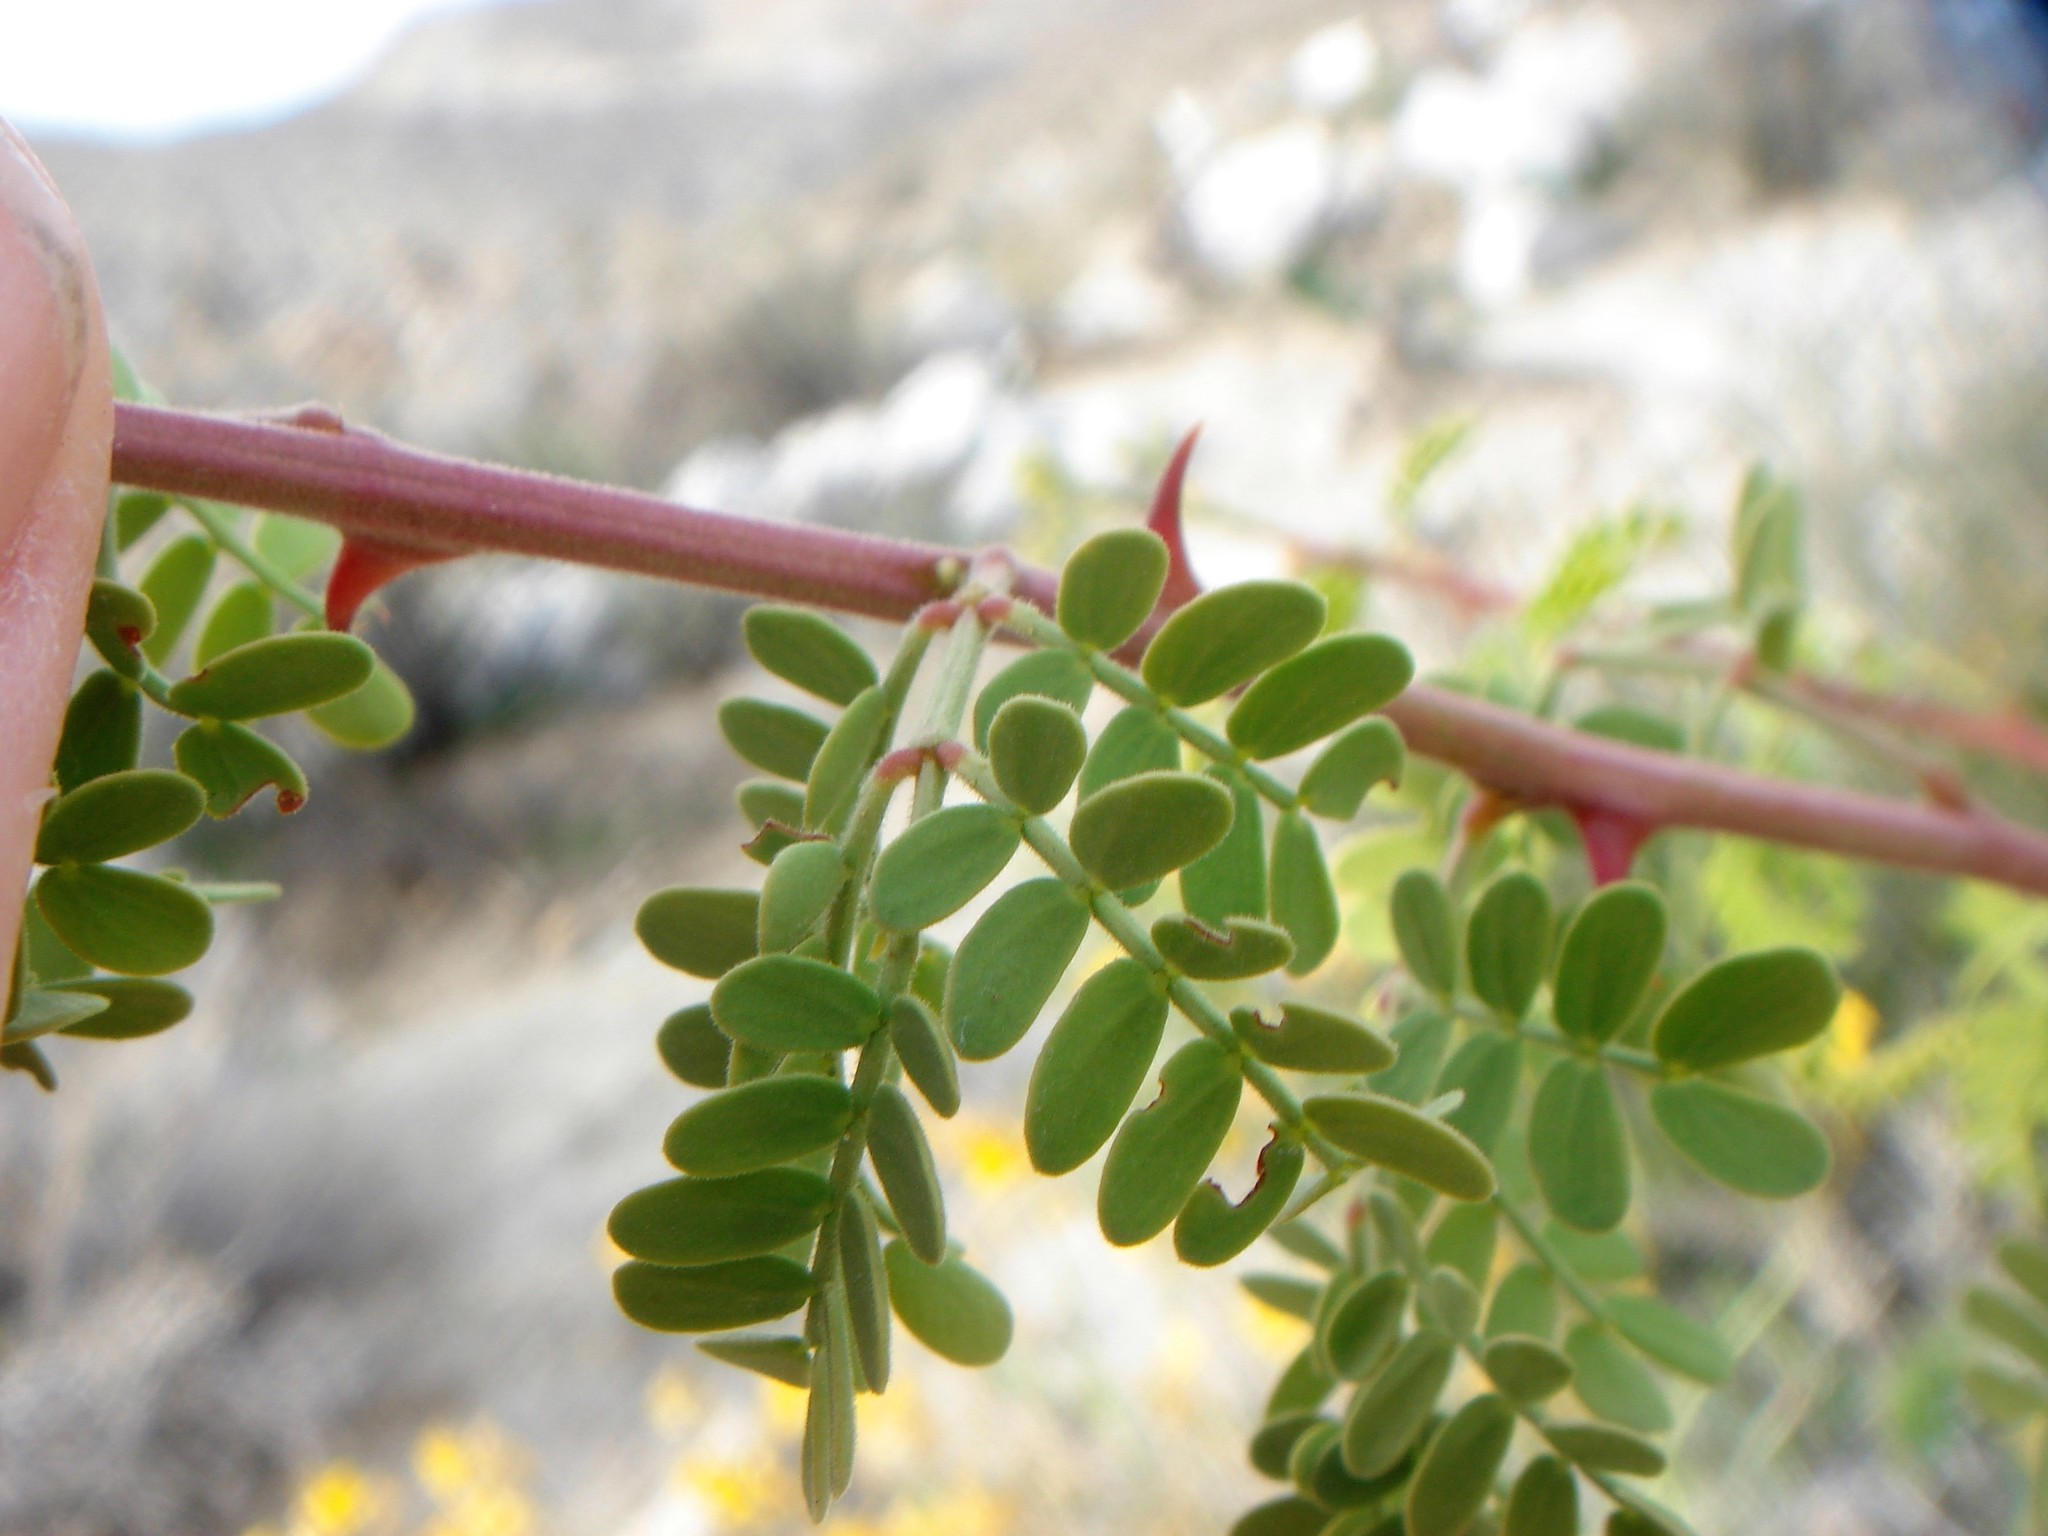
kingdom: Plantae
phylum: Tracheophyta
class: Magnoliopsida
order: Fabales
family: Fabaceae
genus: Senegalia
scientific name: Senegalia greggii
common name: Texas-mimosa
